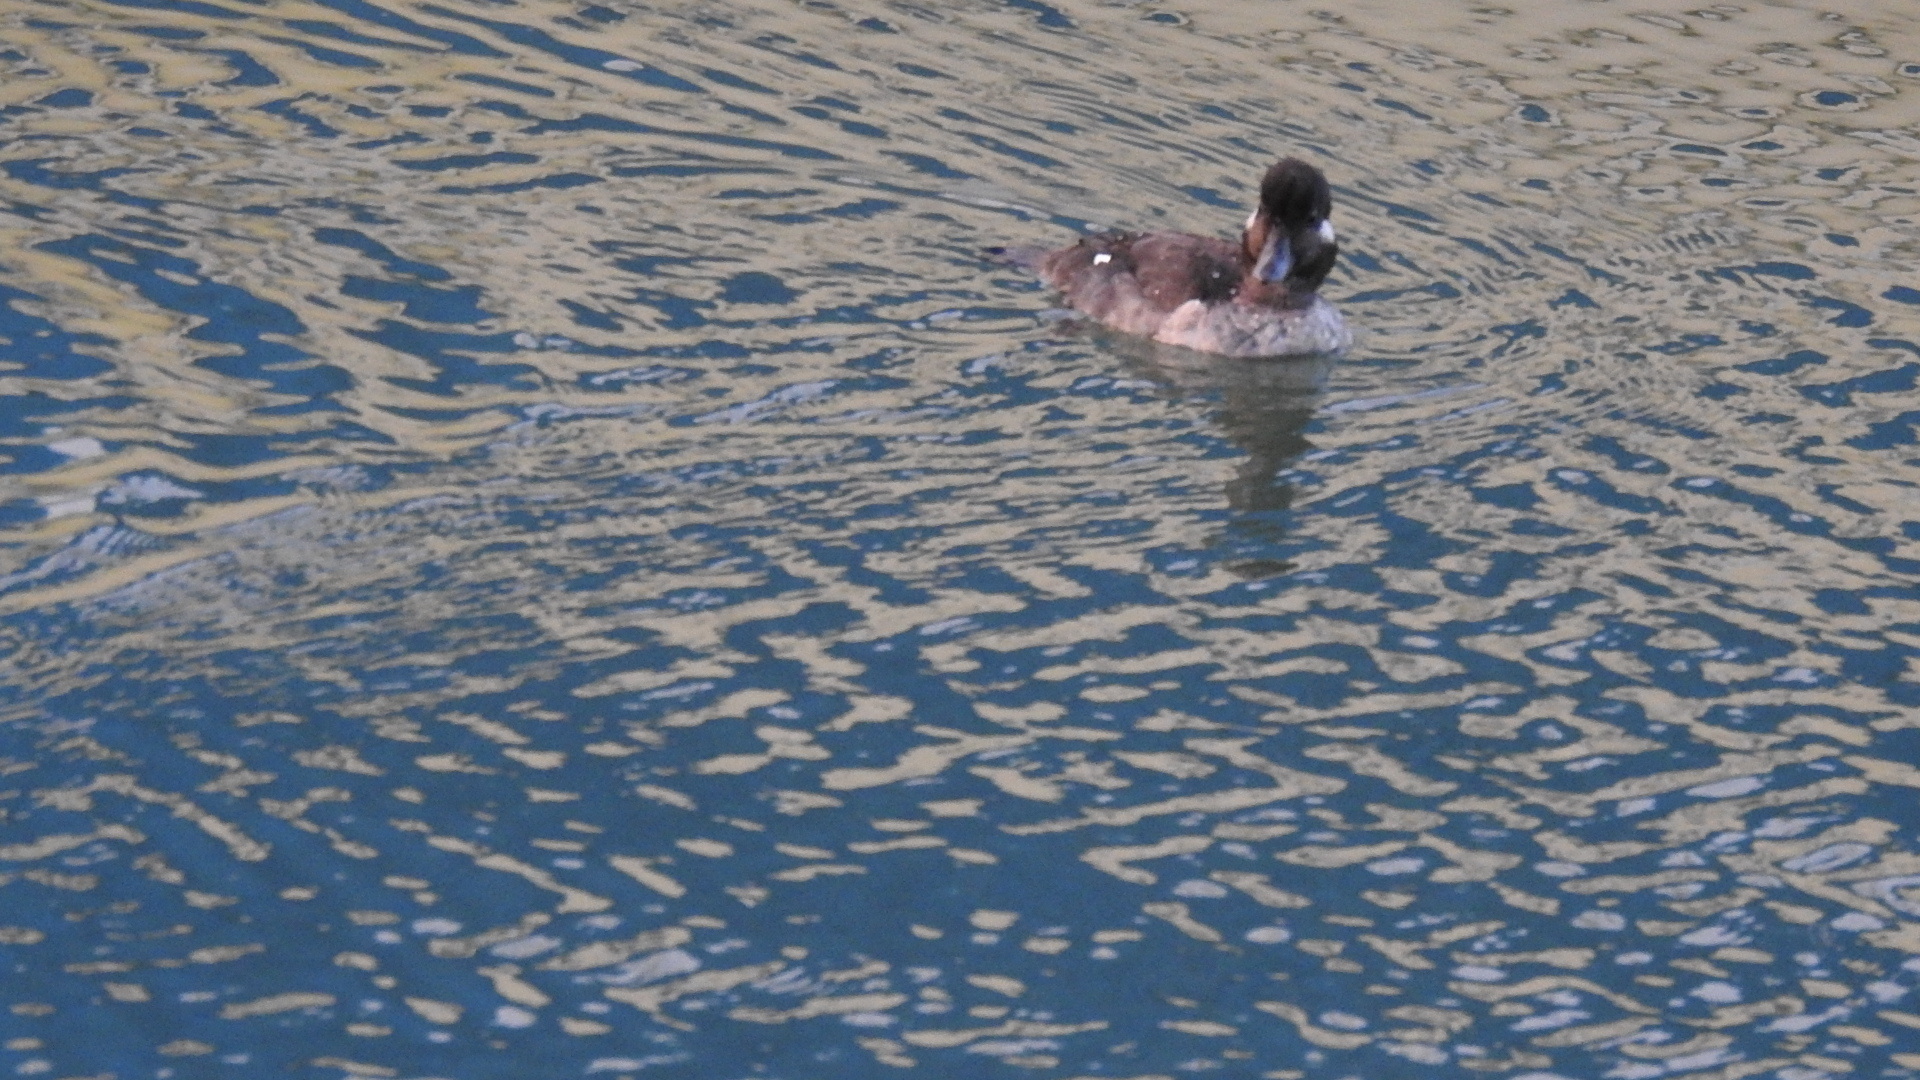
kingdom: Animalia
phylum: Chordata
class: Aves
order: Anseriformes
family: Anatidae
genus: Bucephala
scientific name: Bucephala albeola
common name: Bufflehead
